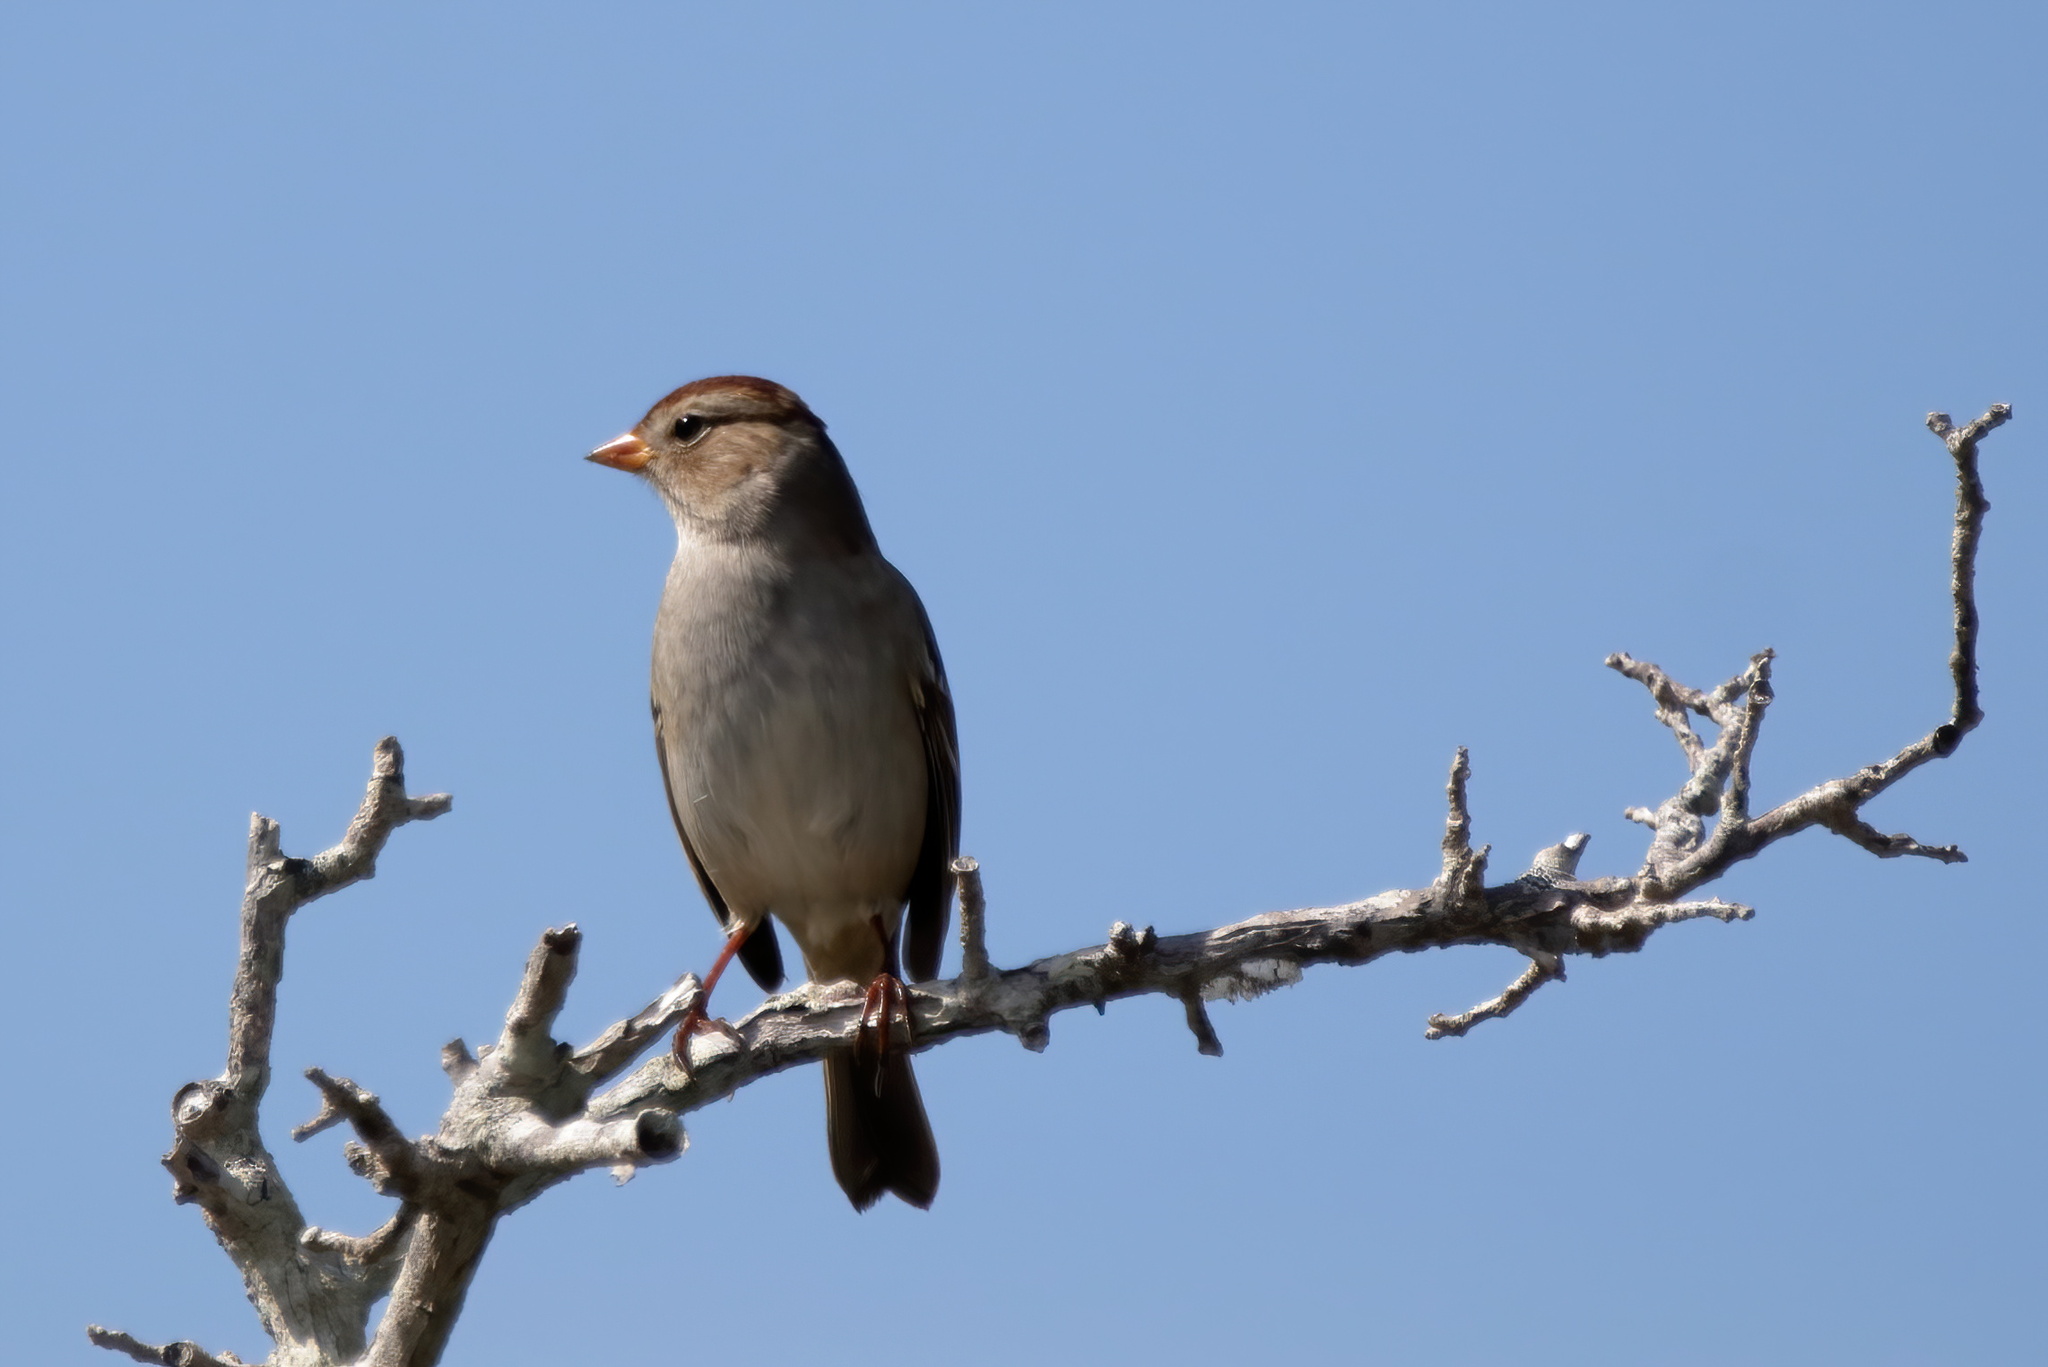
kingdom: Animalia
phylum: Chordata
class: Aves
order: Passeriformes
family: Passerellidae
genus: Zonotrichia
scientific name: Zonotrichia leucophrys
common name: White-crowned sparrow
